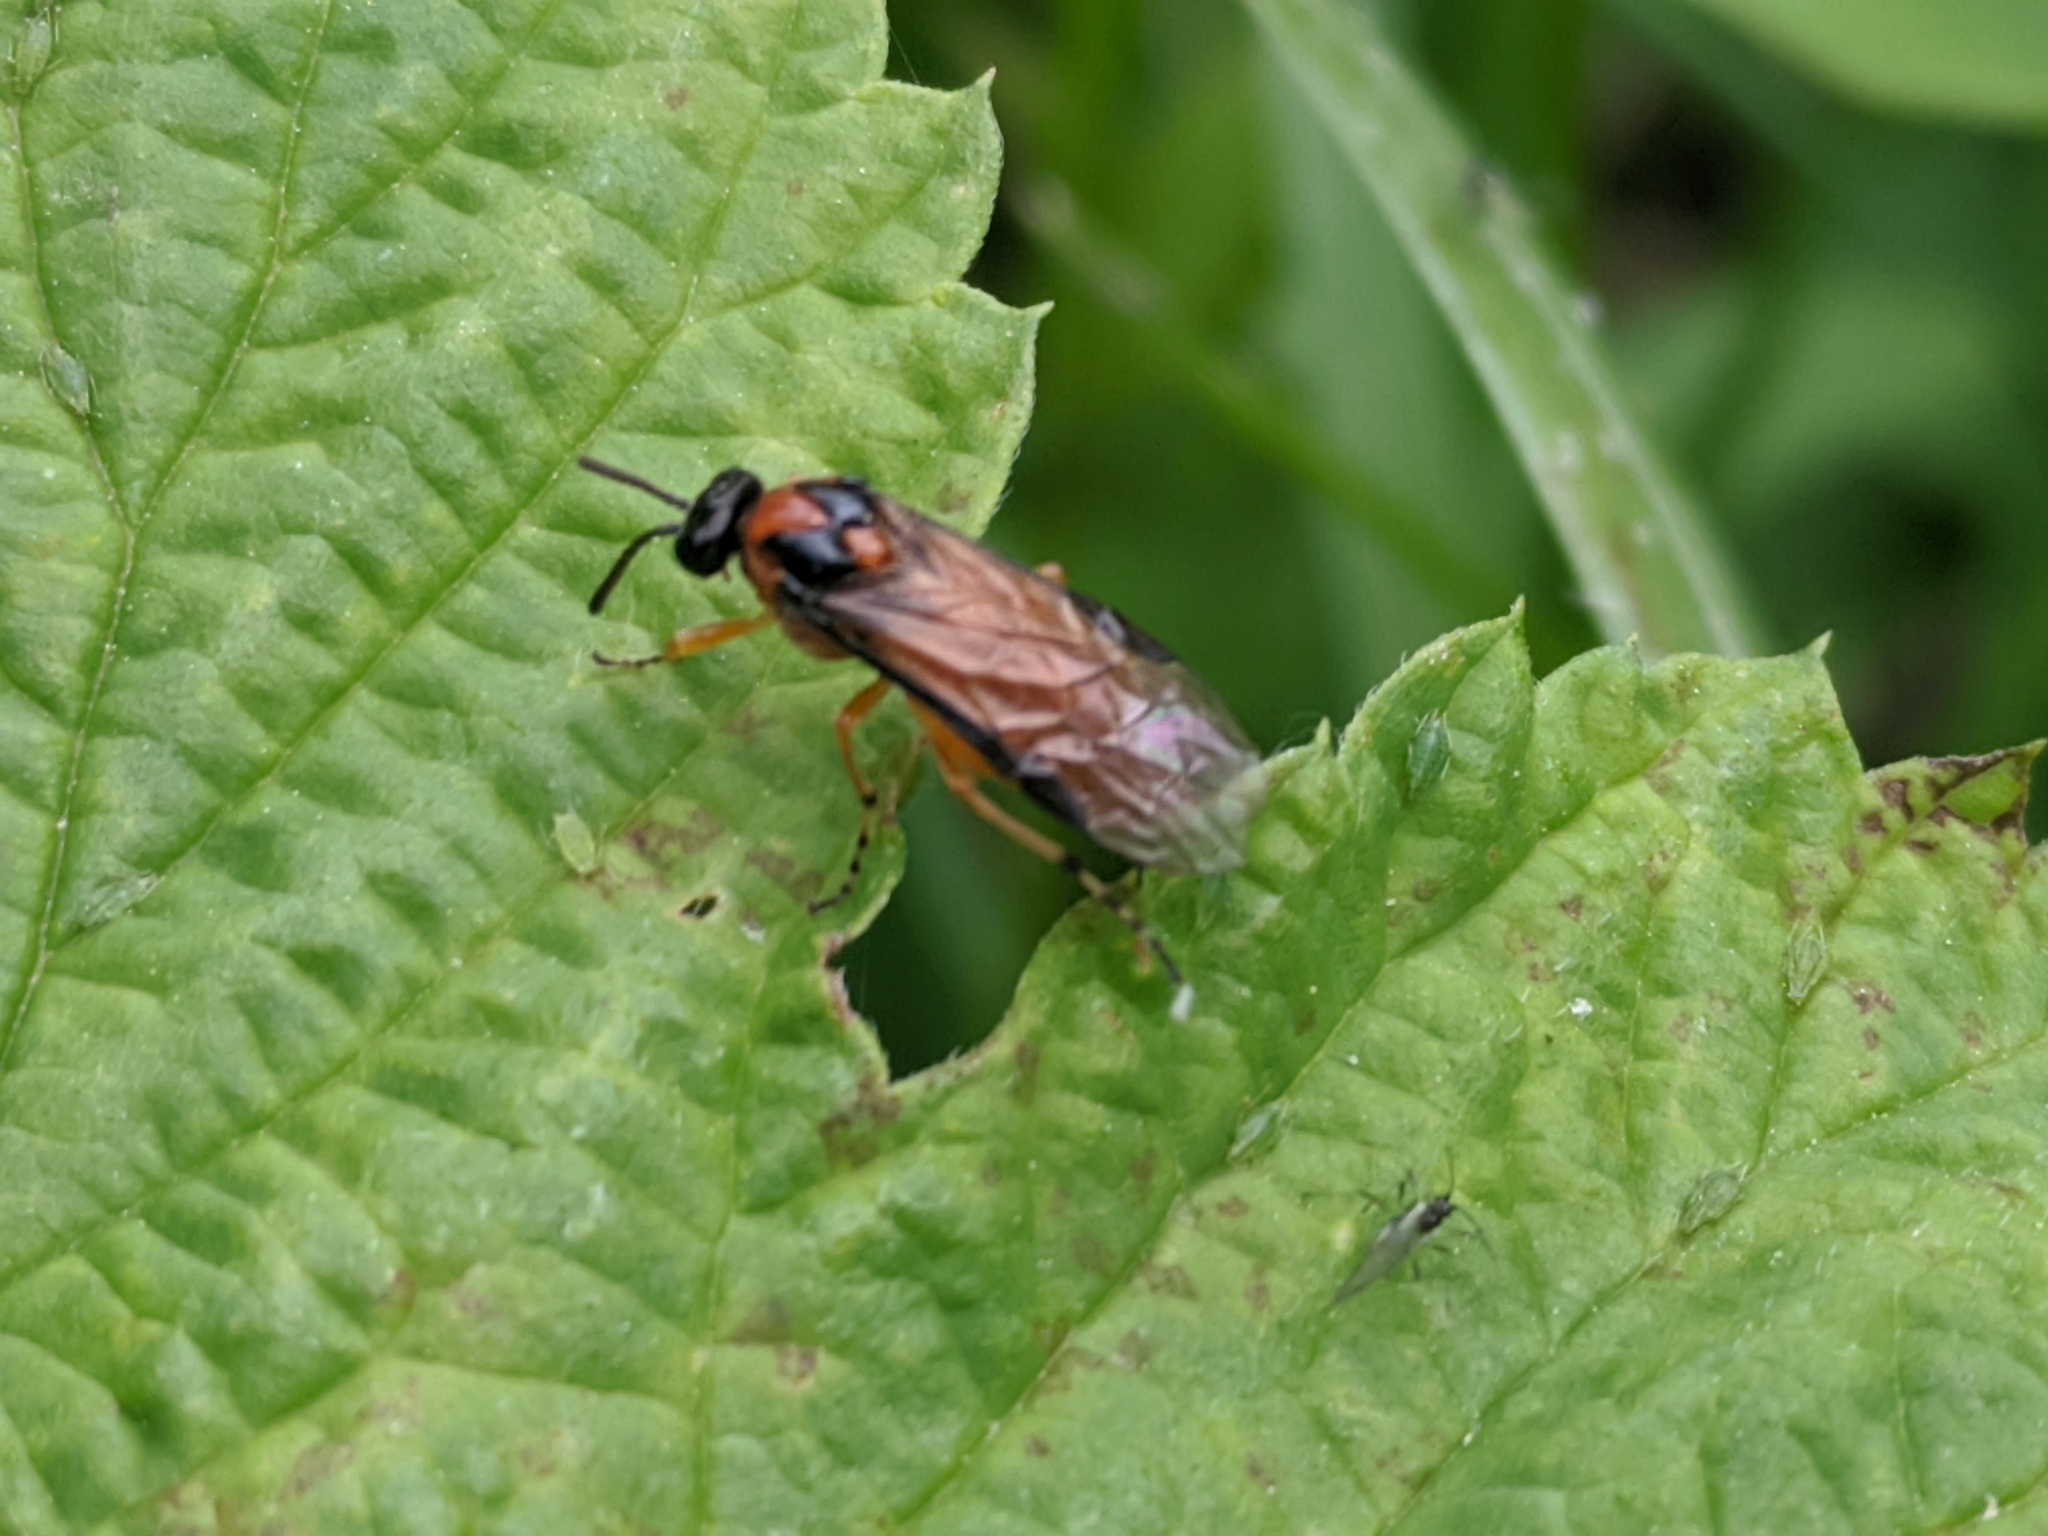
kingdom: Animalia
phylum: Arthropoda
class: Insecta
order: Hymenoptera
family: Tenthredinidae
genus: Athalia
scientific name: Athalia rosae
